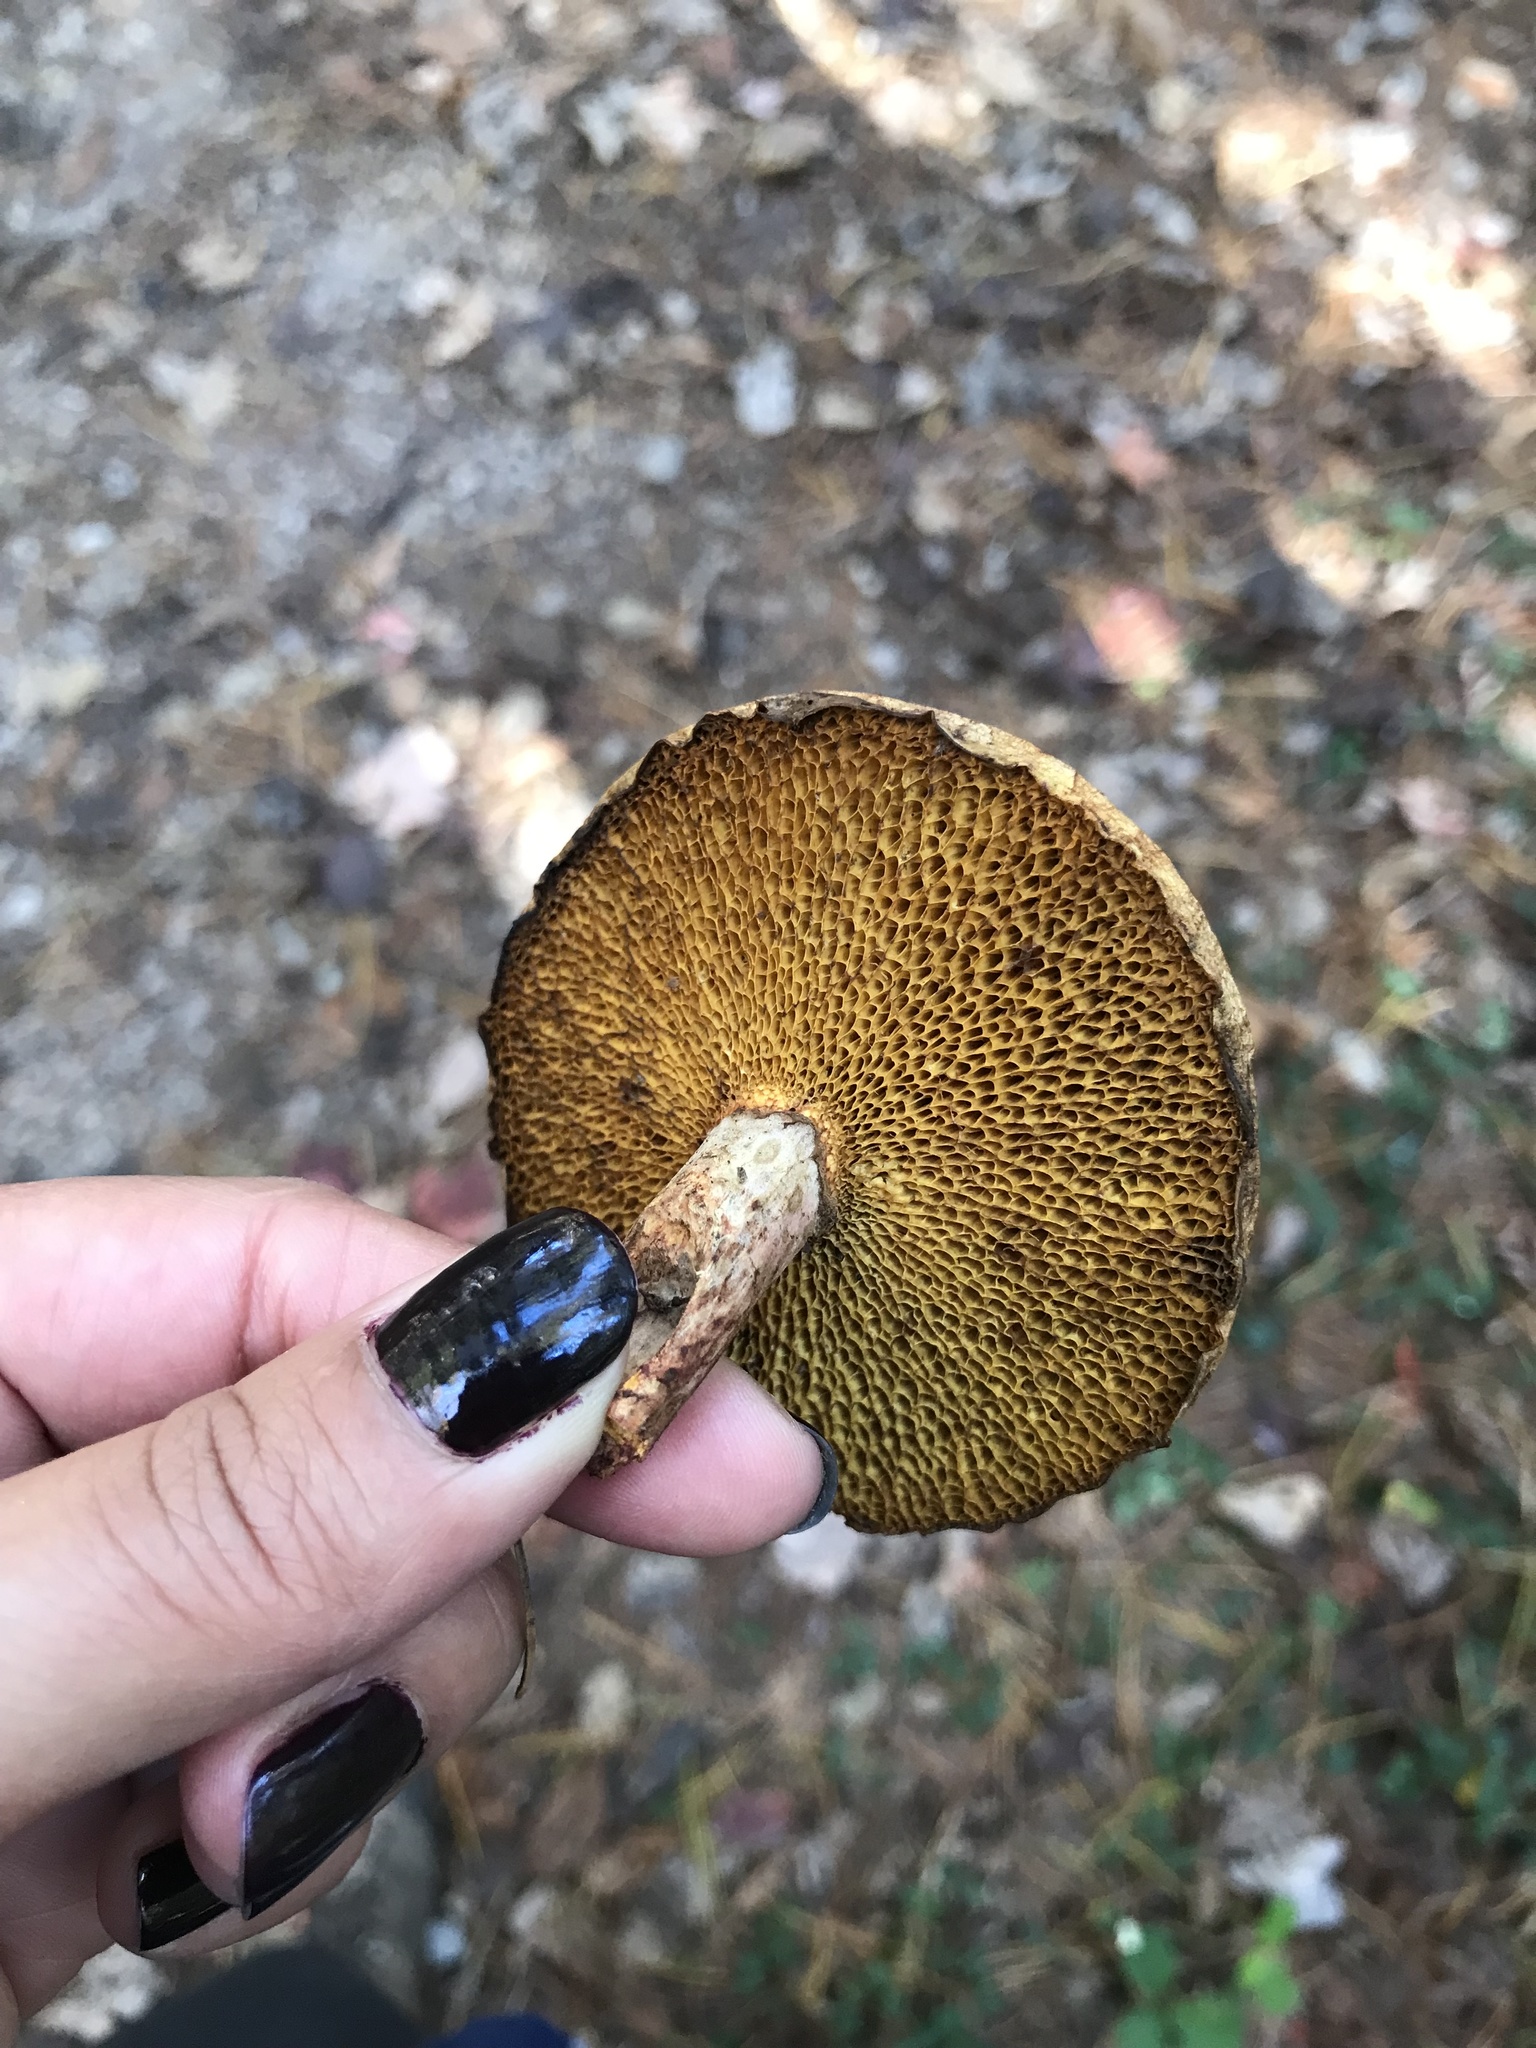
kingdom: Fungi
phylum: Basidiomycota
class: Agaricomycetes
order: Boletales
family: Suillaceae
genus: Suillus
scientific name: Suillus spraguei
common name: Painted suillus
